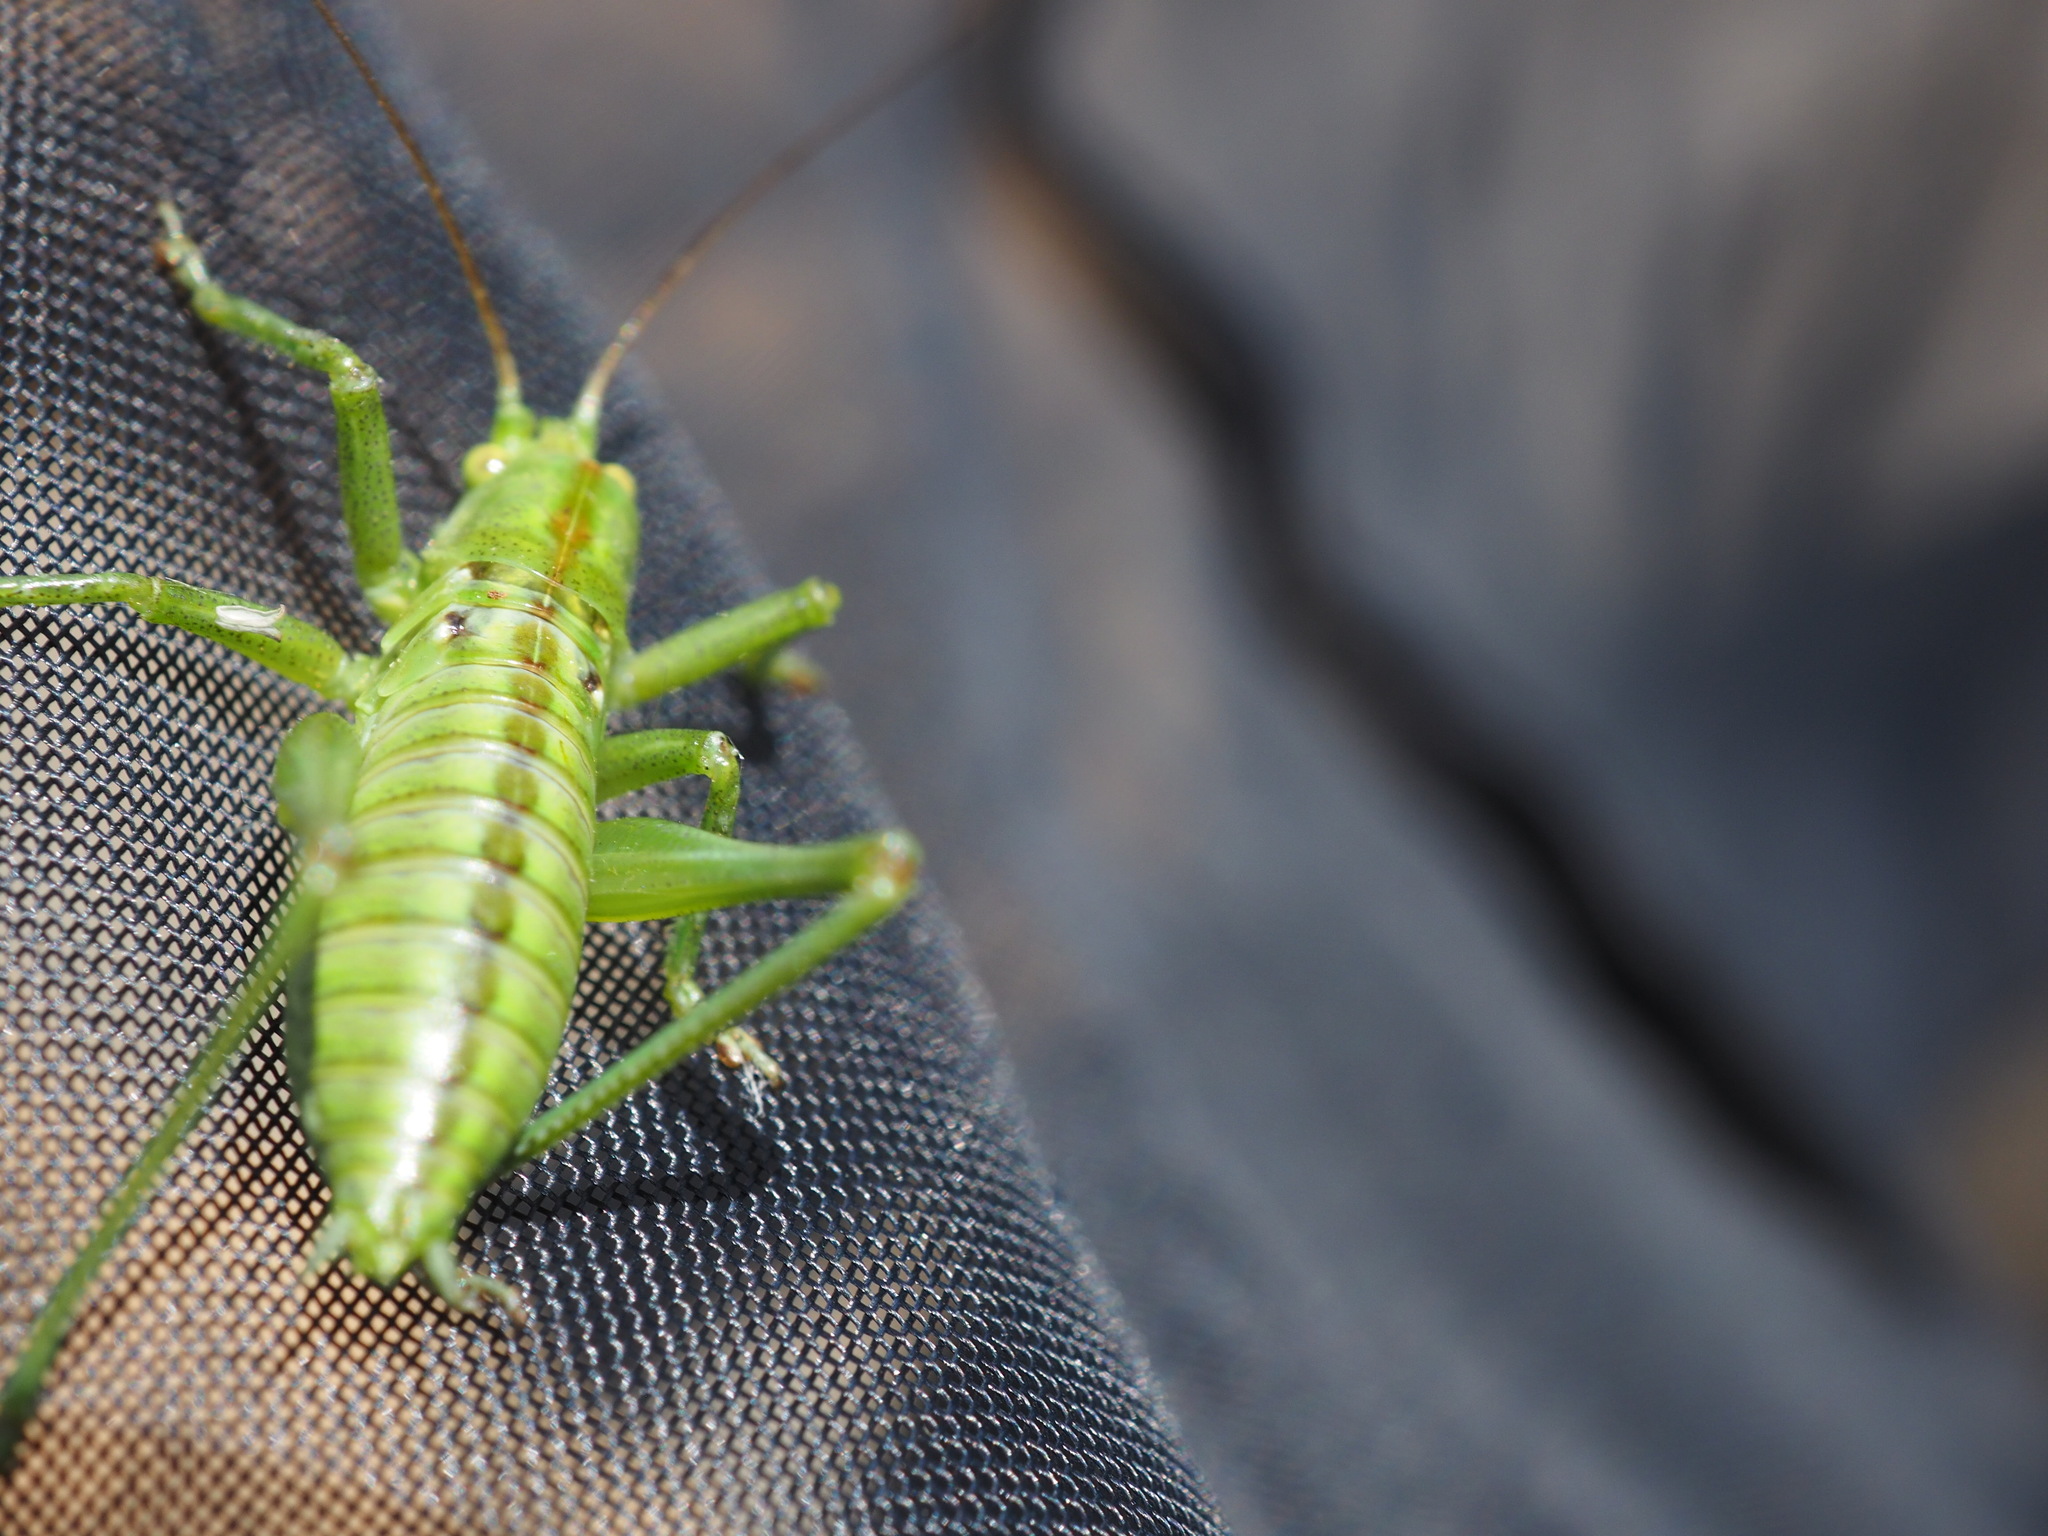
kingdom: Animalia
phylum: Arthropoda
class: Insecta
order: Orthoptera
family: Tettigoniidae
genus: Tettigonia
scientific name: Tettigonia viridissima
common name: Great green bush-cricket
